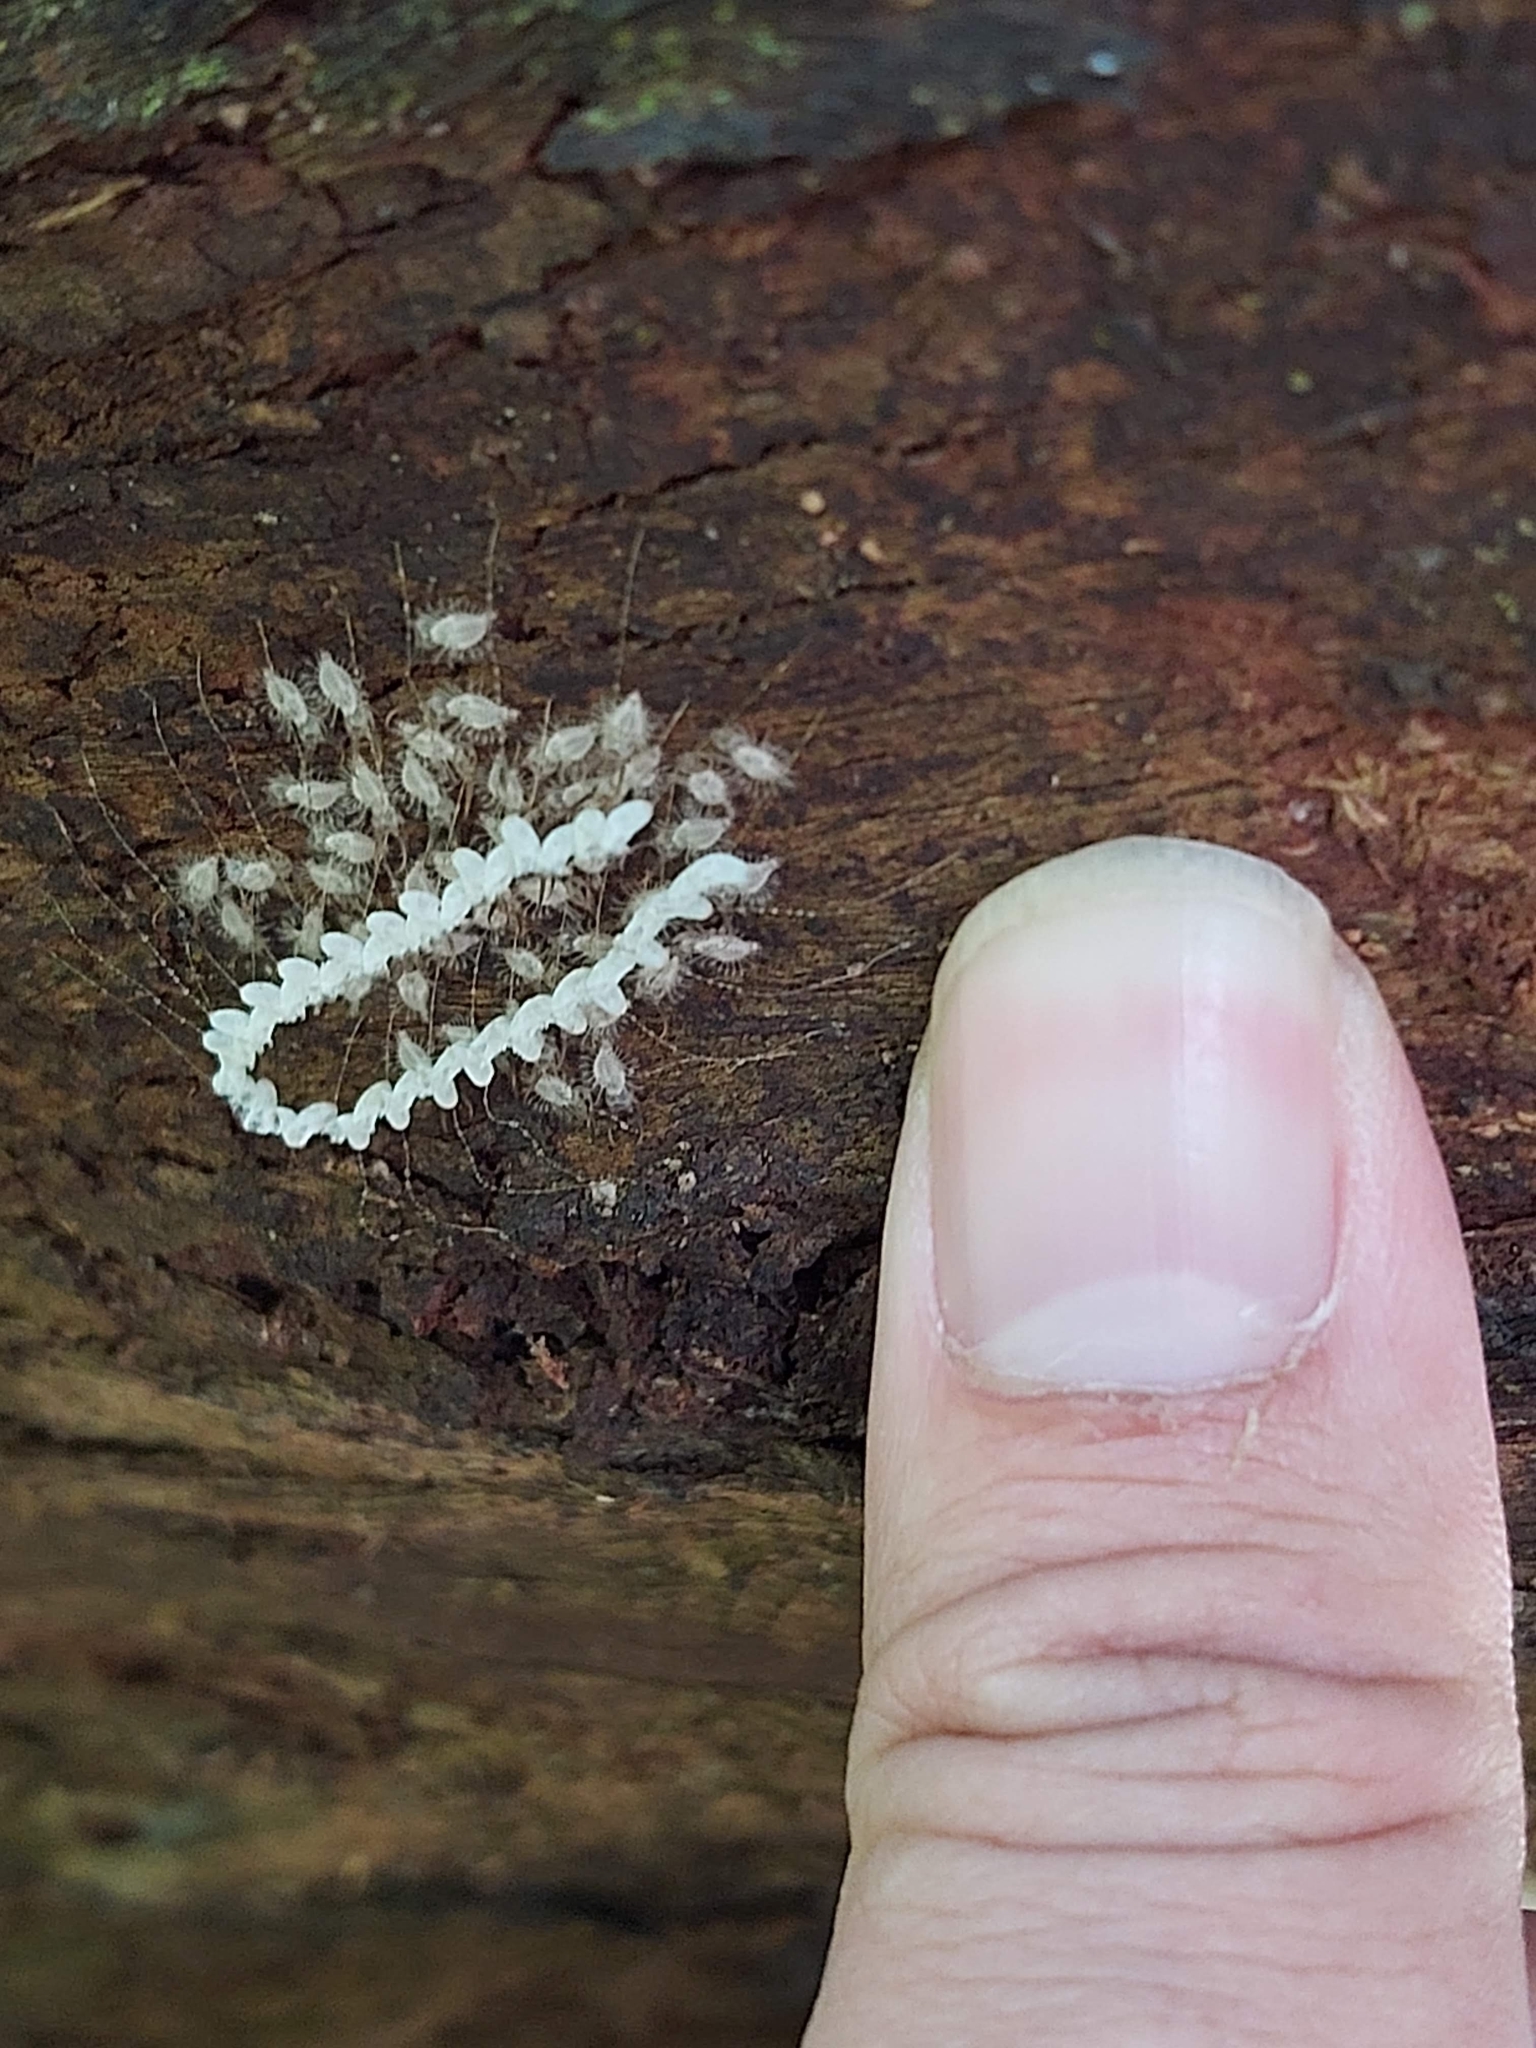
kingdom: Animalia
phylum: Arthropoda
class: Insecta
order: Neuroptera
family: Nymphidae
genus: Nymphes
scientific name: Nymphes myrmeleonoides
